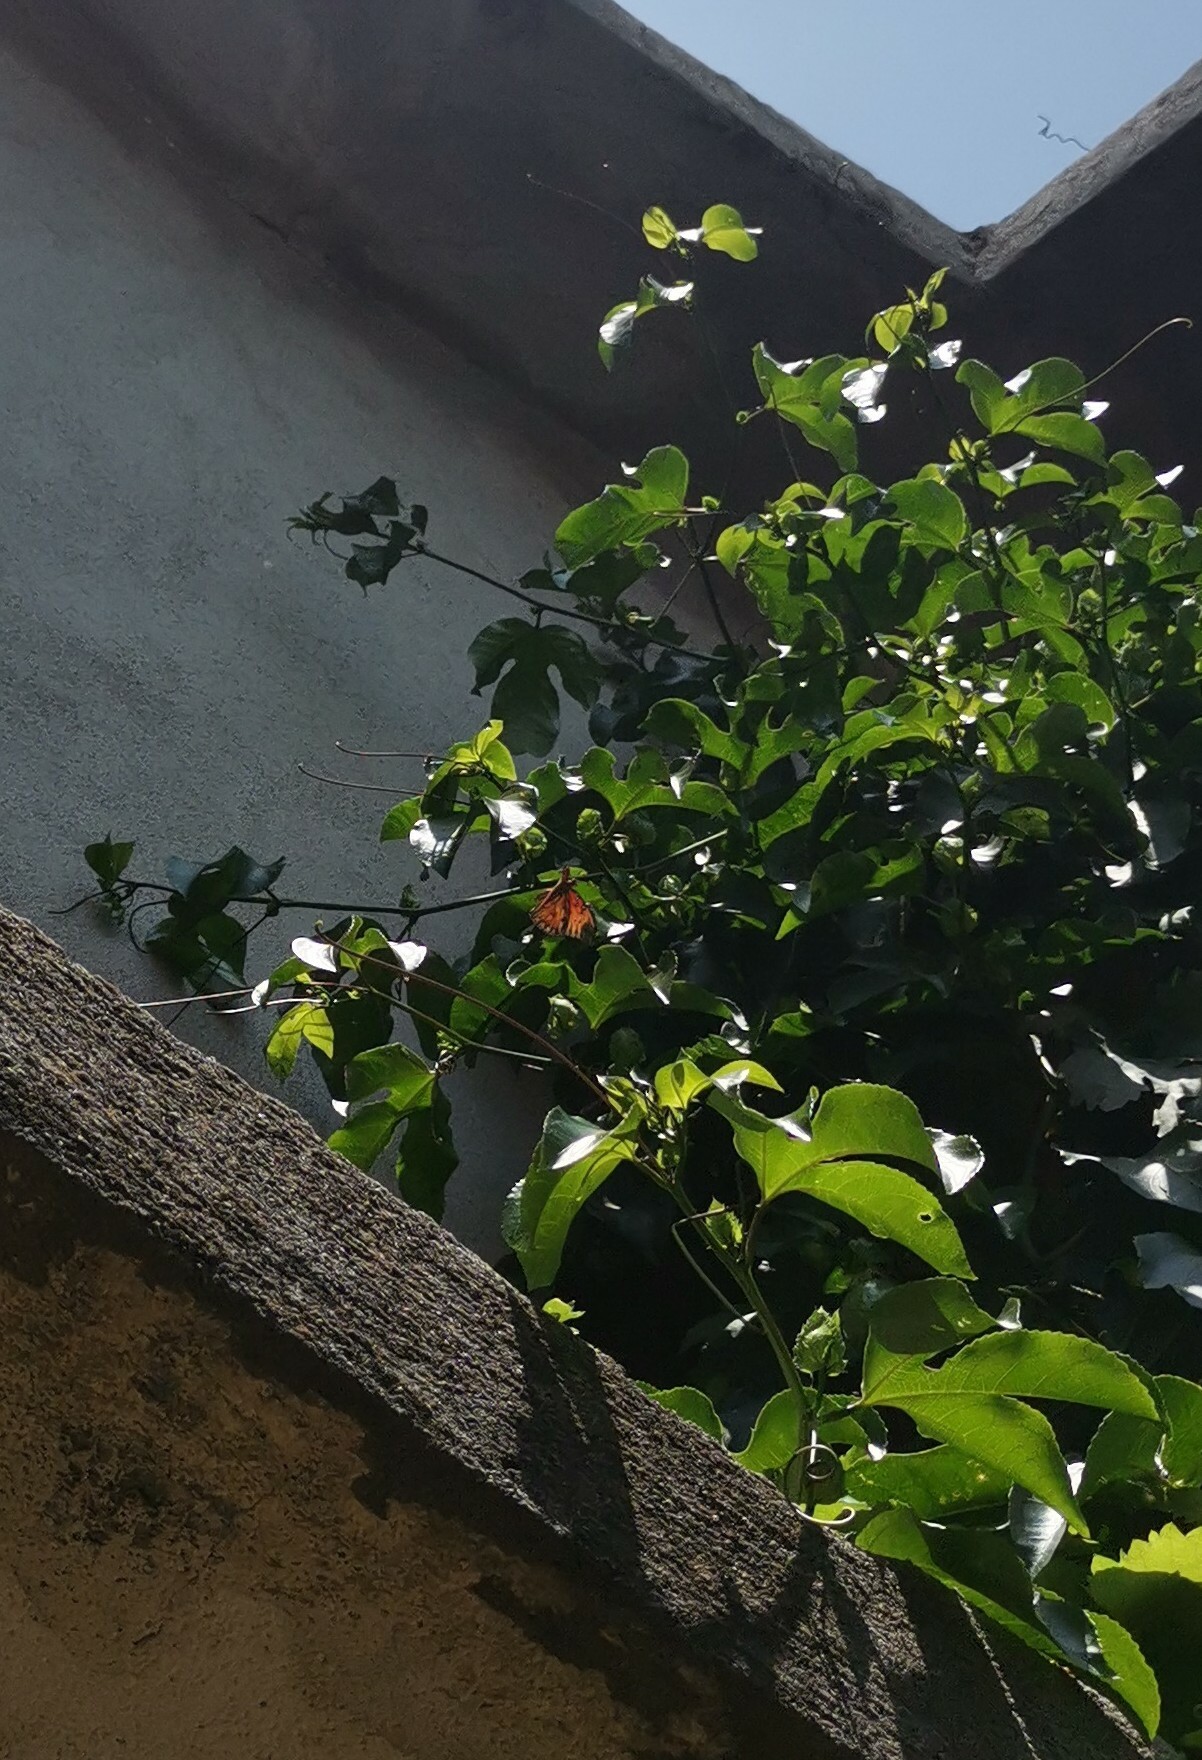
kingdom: Animalia
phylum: Arthropoda
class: Insecta
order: Lepidoptera
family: Nymphalidae
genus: Dione
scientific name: Dione vanillae
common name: Gulf fritillary
